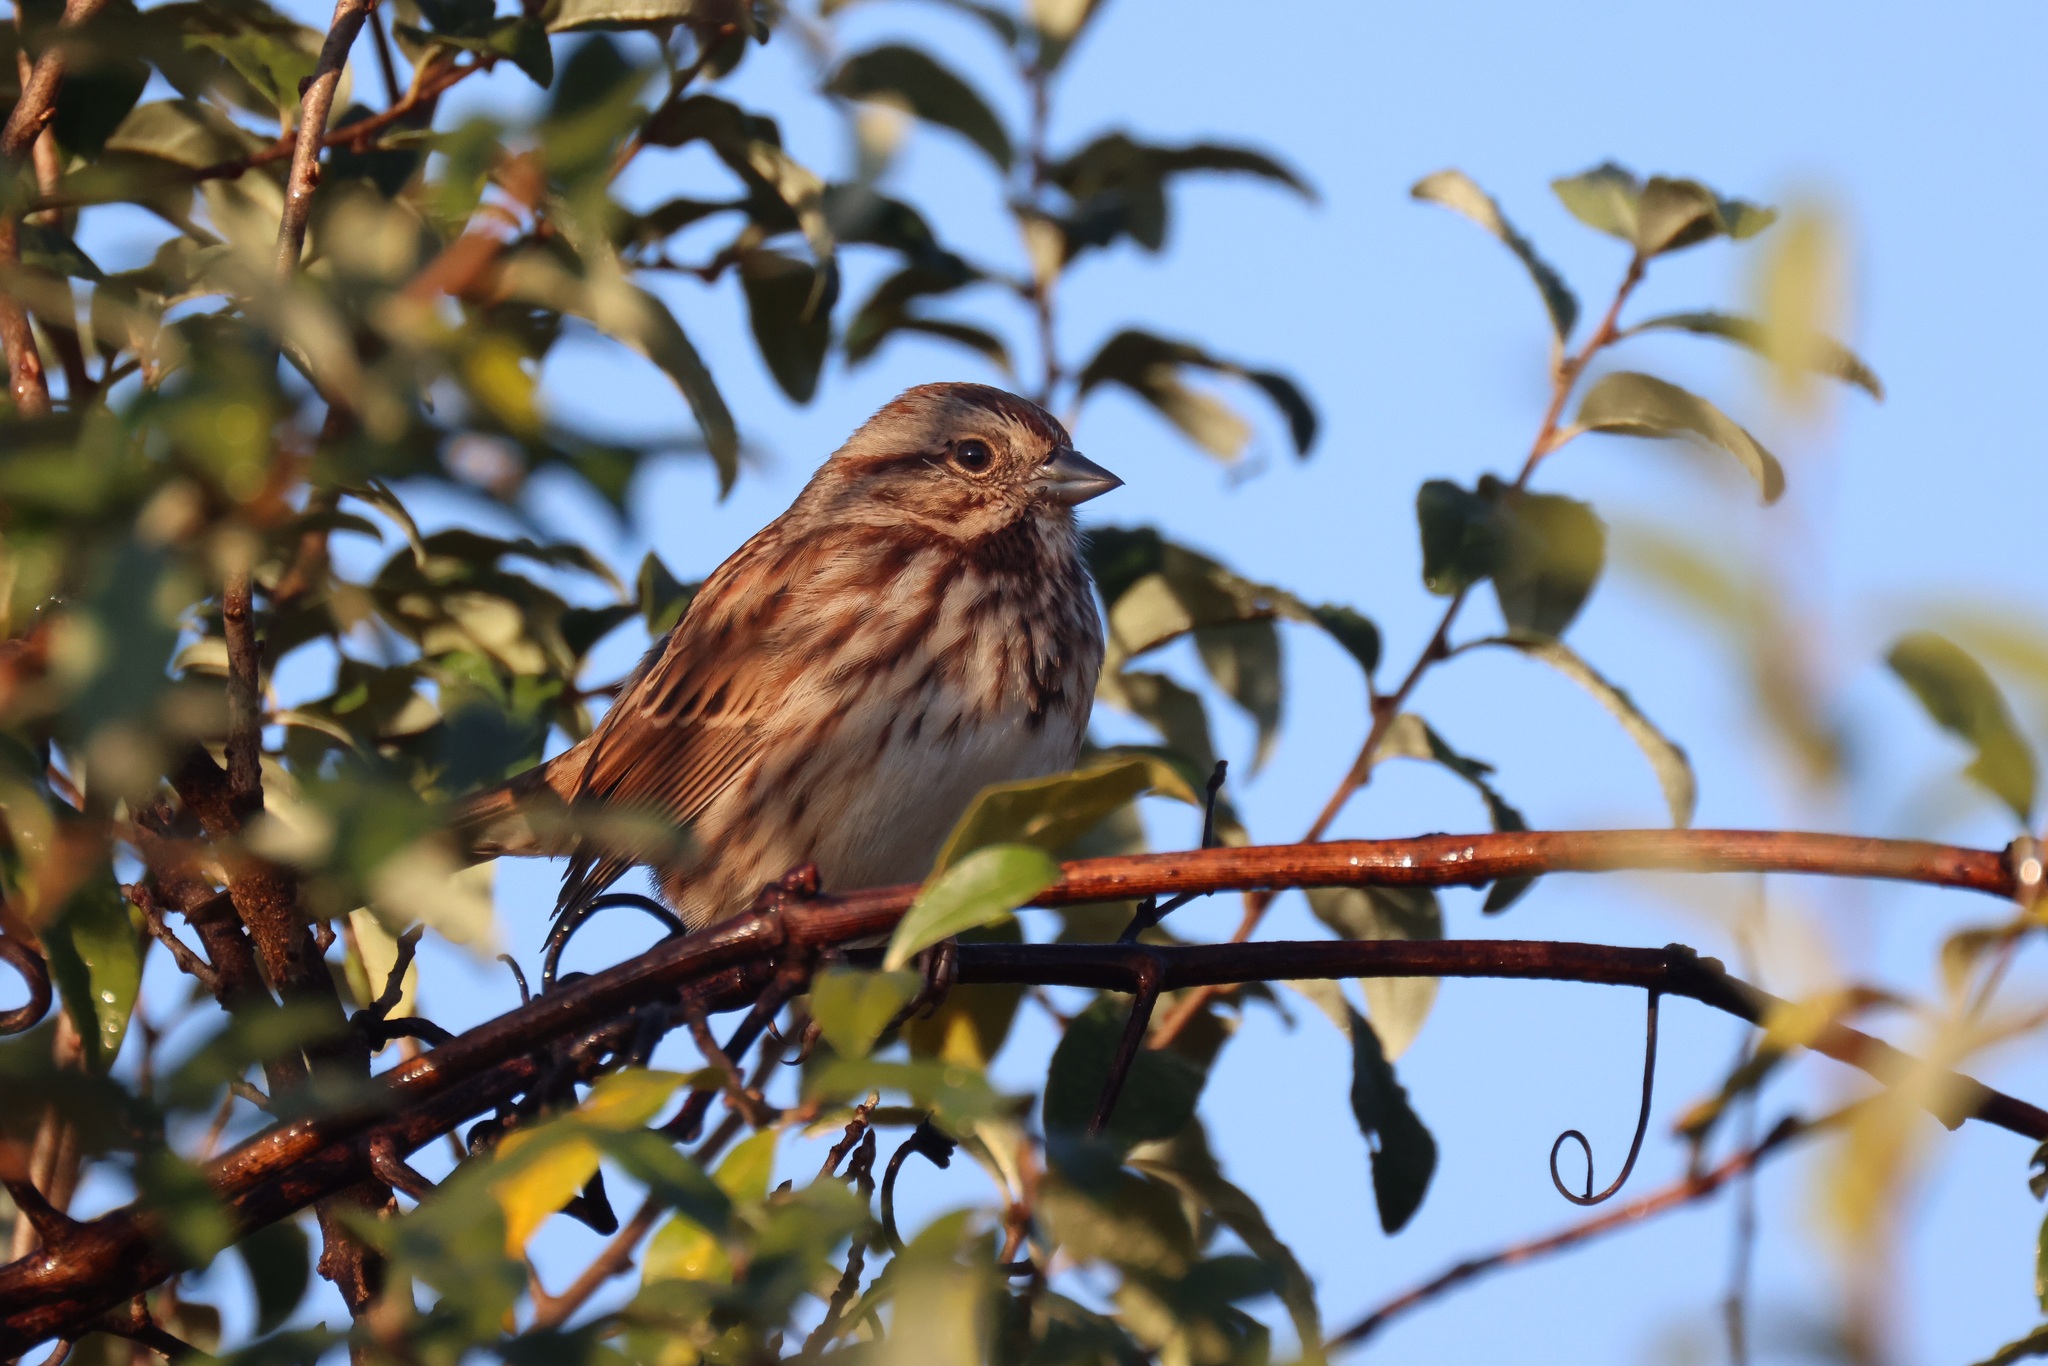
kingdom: Animalia
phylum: Chordata
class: Aves
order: Passeriformes
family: Passerellidae
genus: Melospiza
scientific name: Melospiza melodia
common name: Song sparrow
